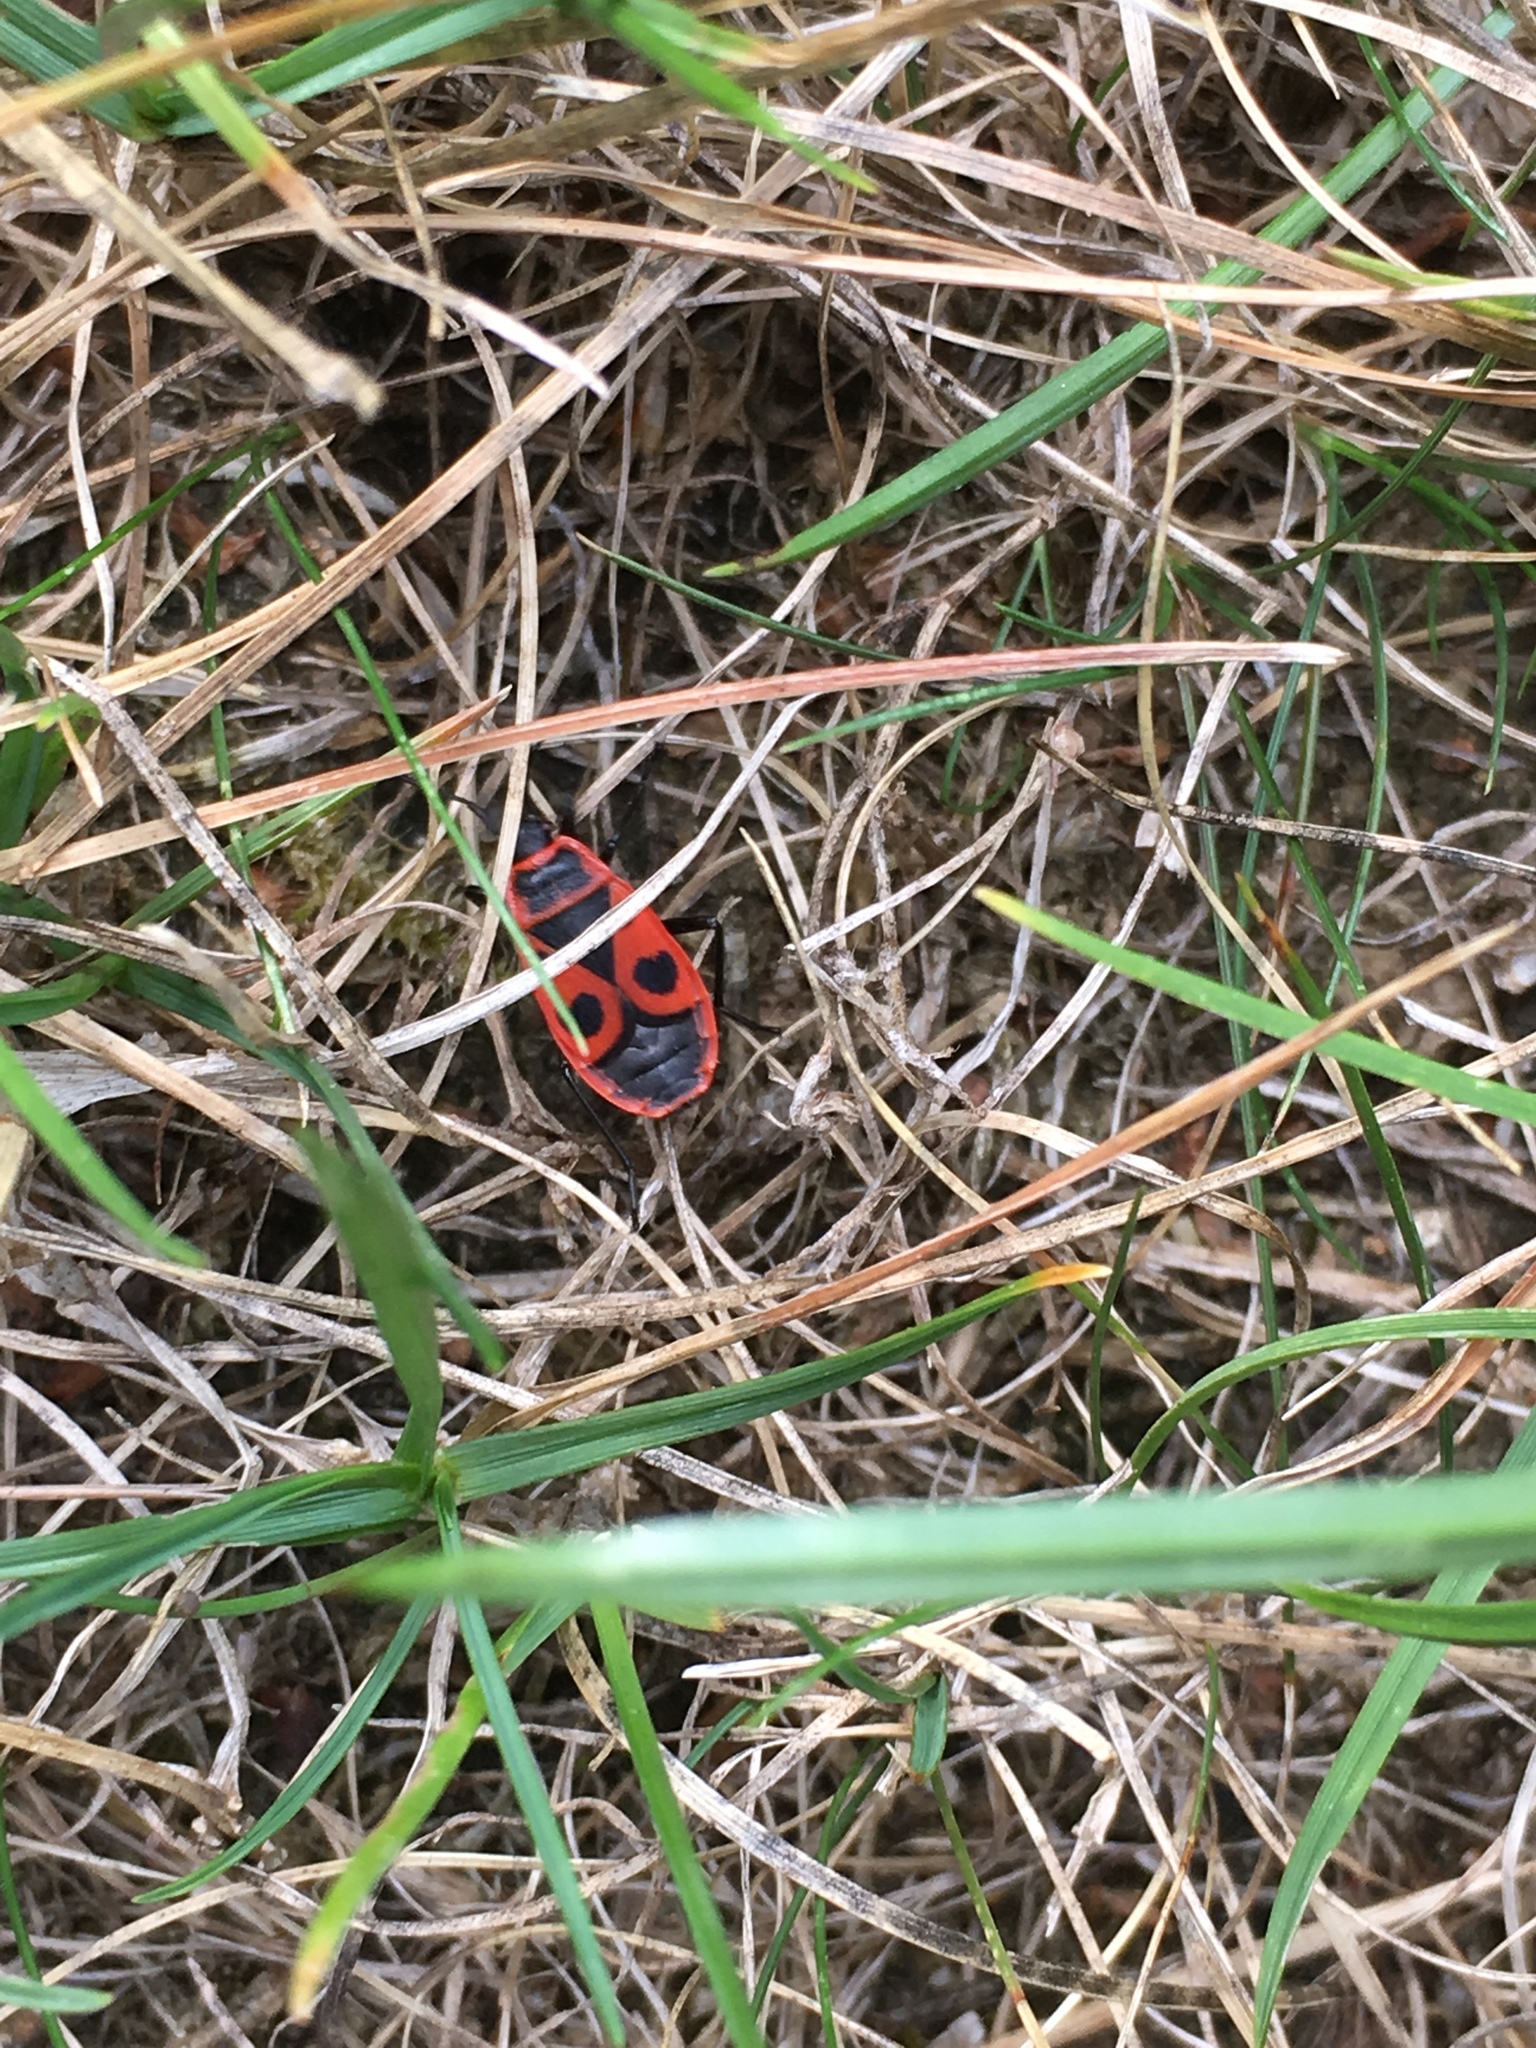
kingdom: Animalia
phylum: Arthropoda
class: Insecta
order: Hemiptera
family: Pyrrhocoridae
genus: Pyrrhocoris
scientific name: Pyrrhocoris apterus
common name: Firebug
